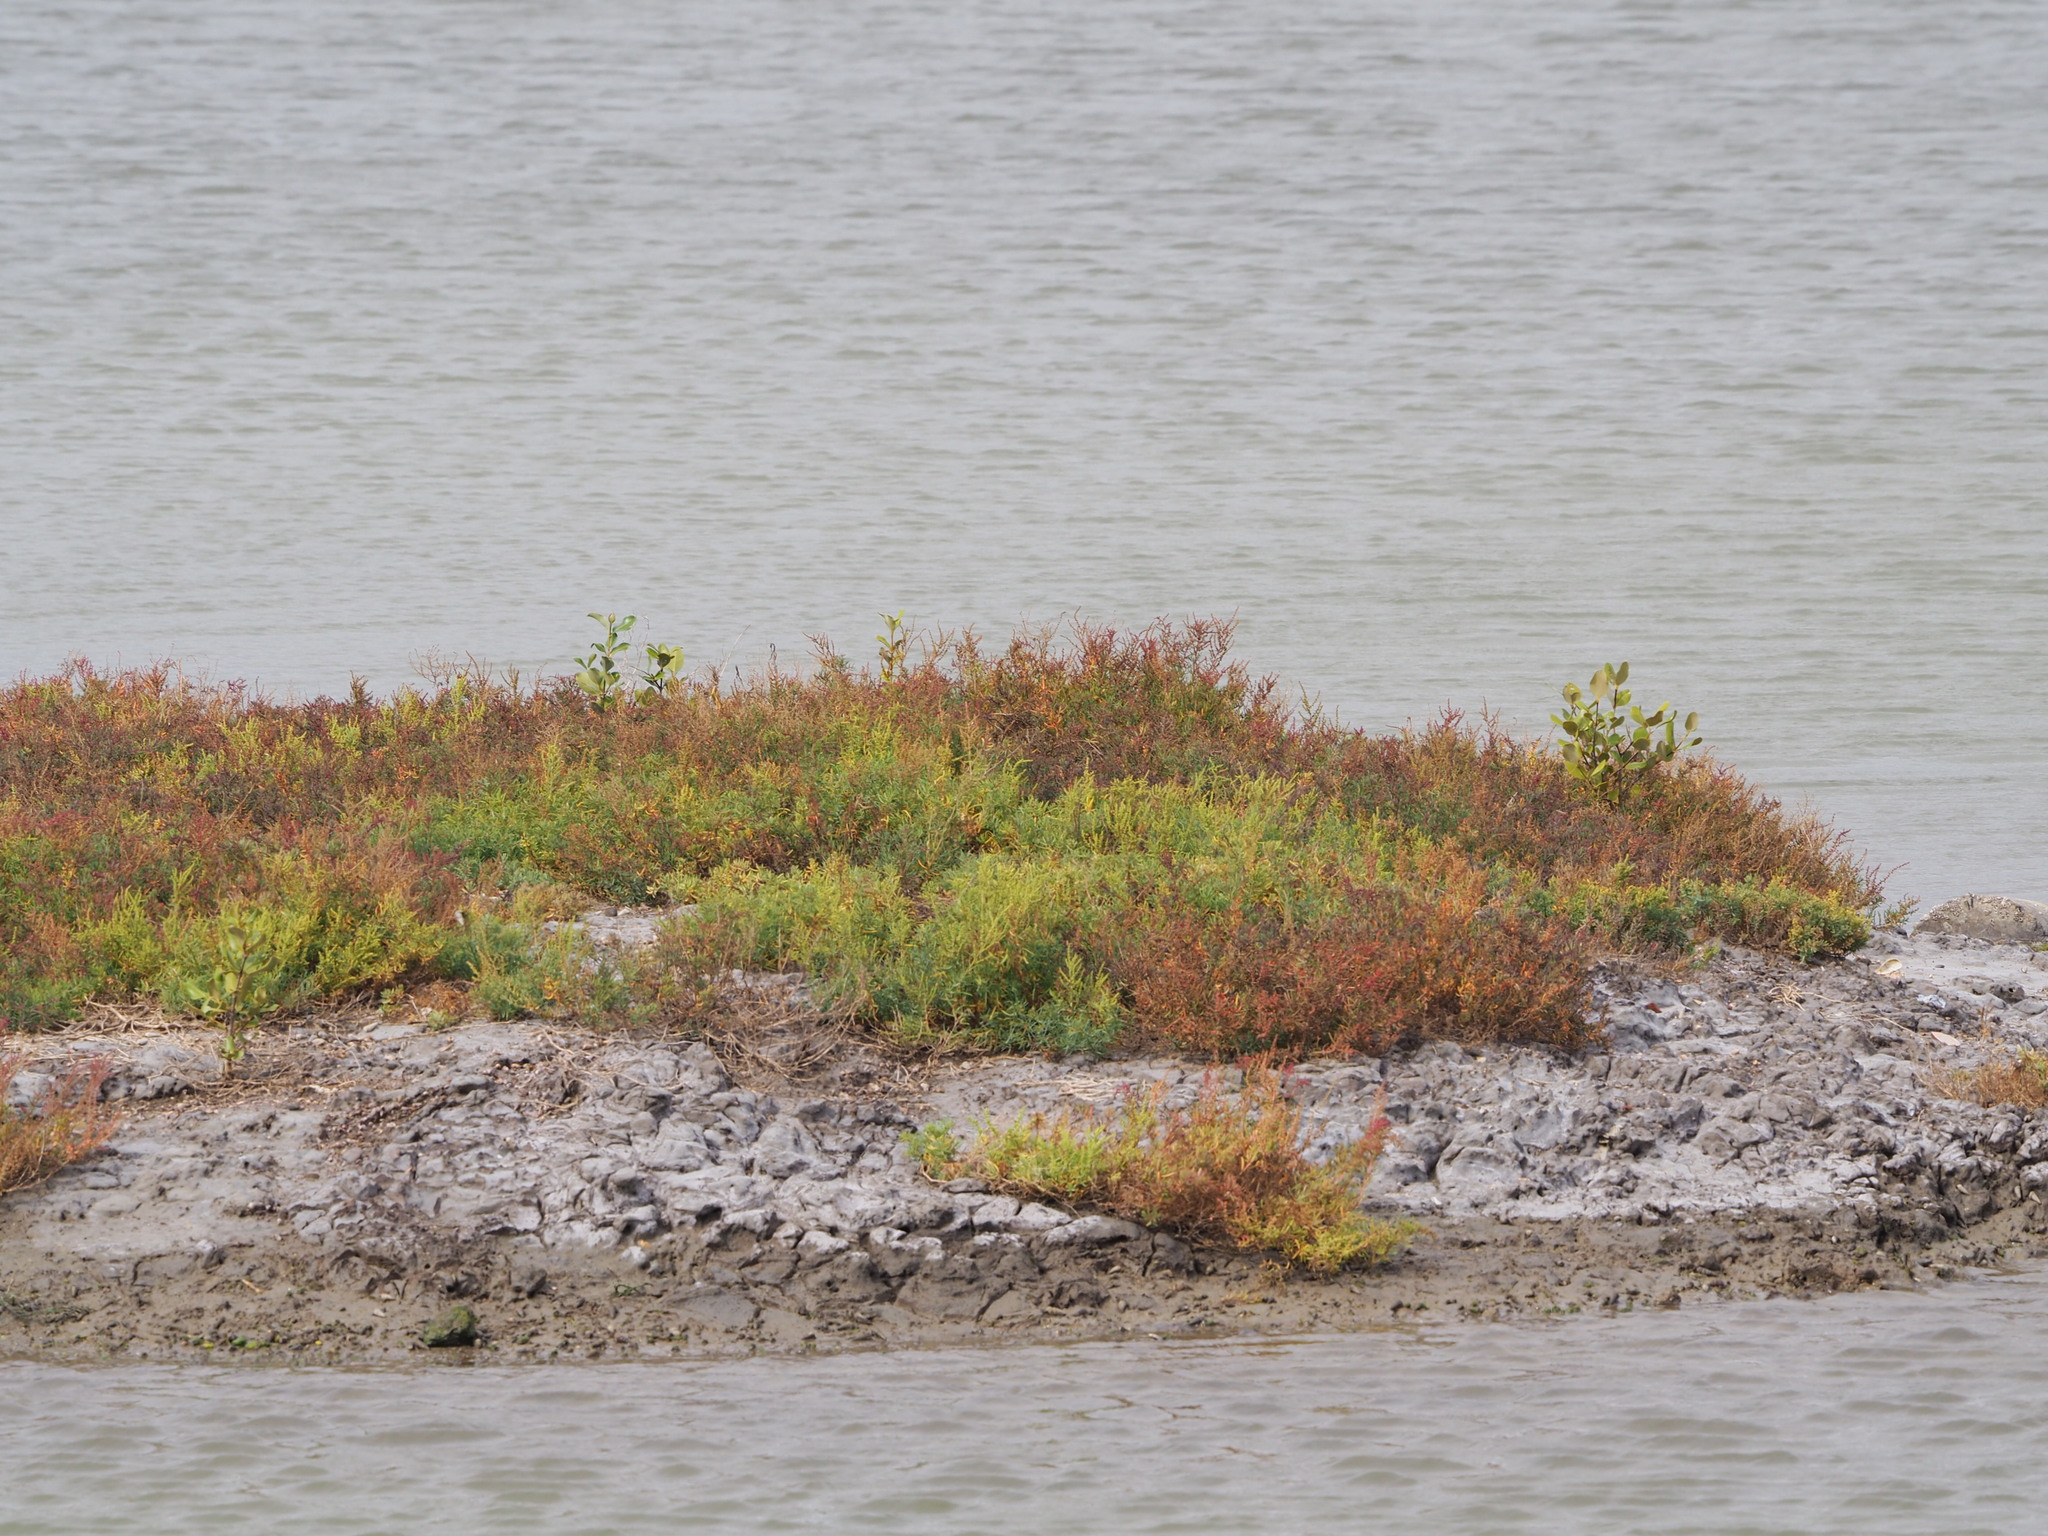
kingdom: Plantae
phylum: Tracheophyta
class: Magnoliopsida
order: Caryophyllales
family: Amaranthaceae
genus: Suaeda
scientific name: Suaeda maritima
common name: Annual sea-blite
